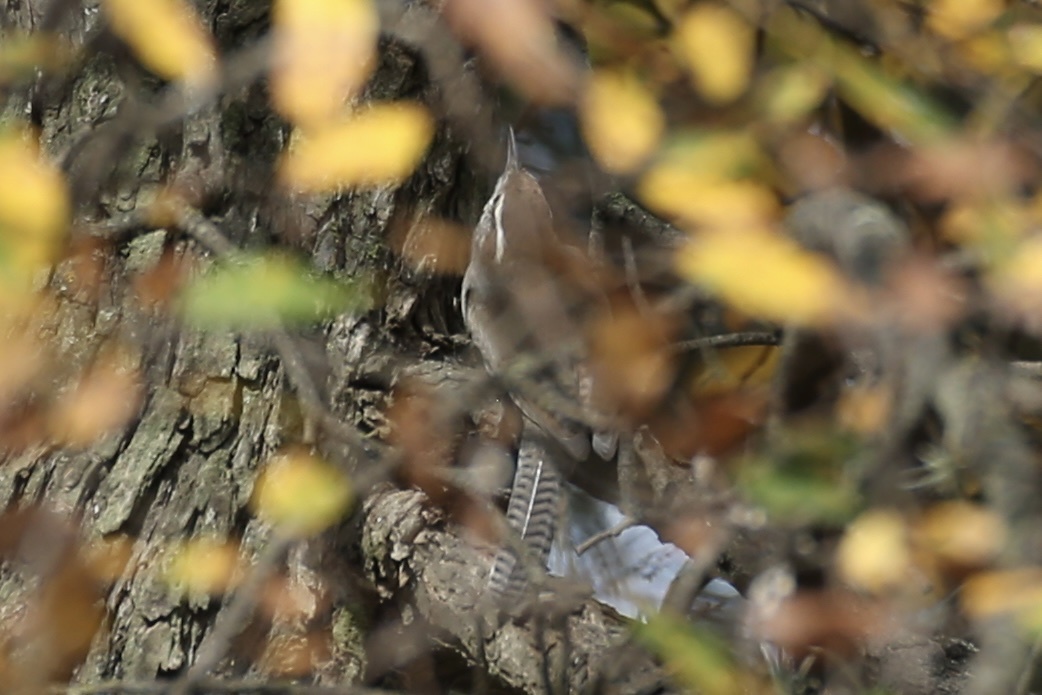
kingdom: Animalia
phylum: Chordata
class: Aves
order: Passeriformes
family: Troglodytidae
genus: Thryomanes
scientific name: Thryomanes bewickii
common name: Bewick's wren
